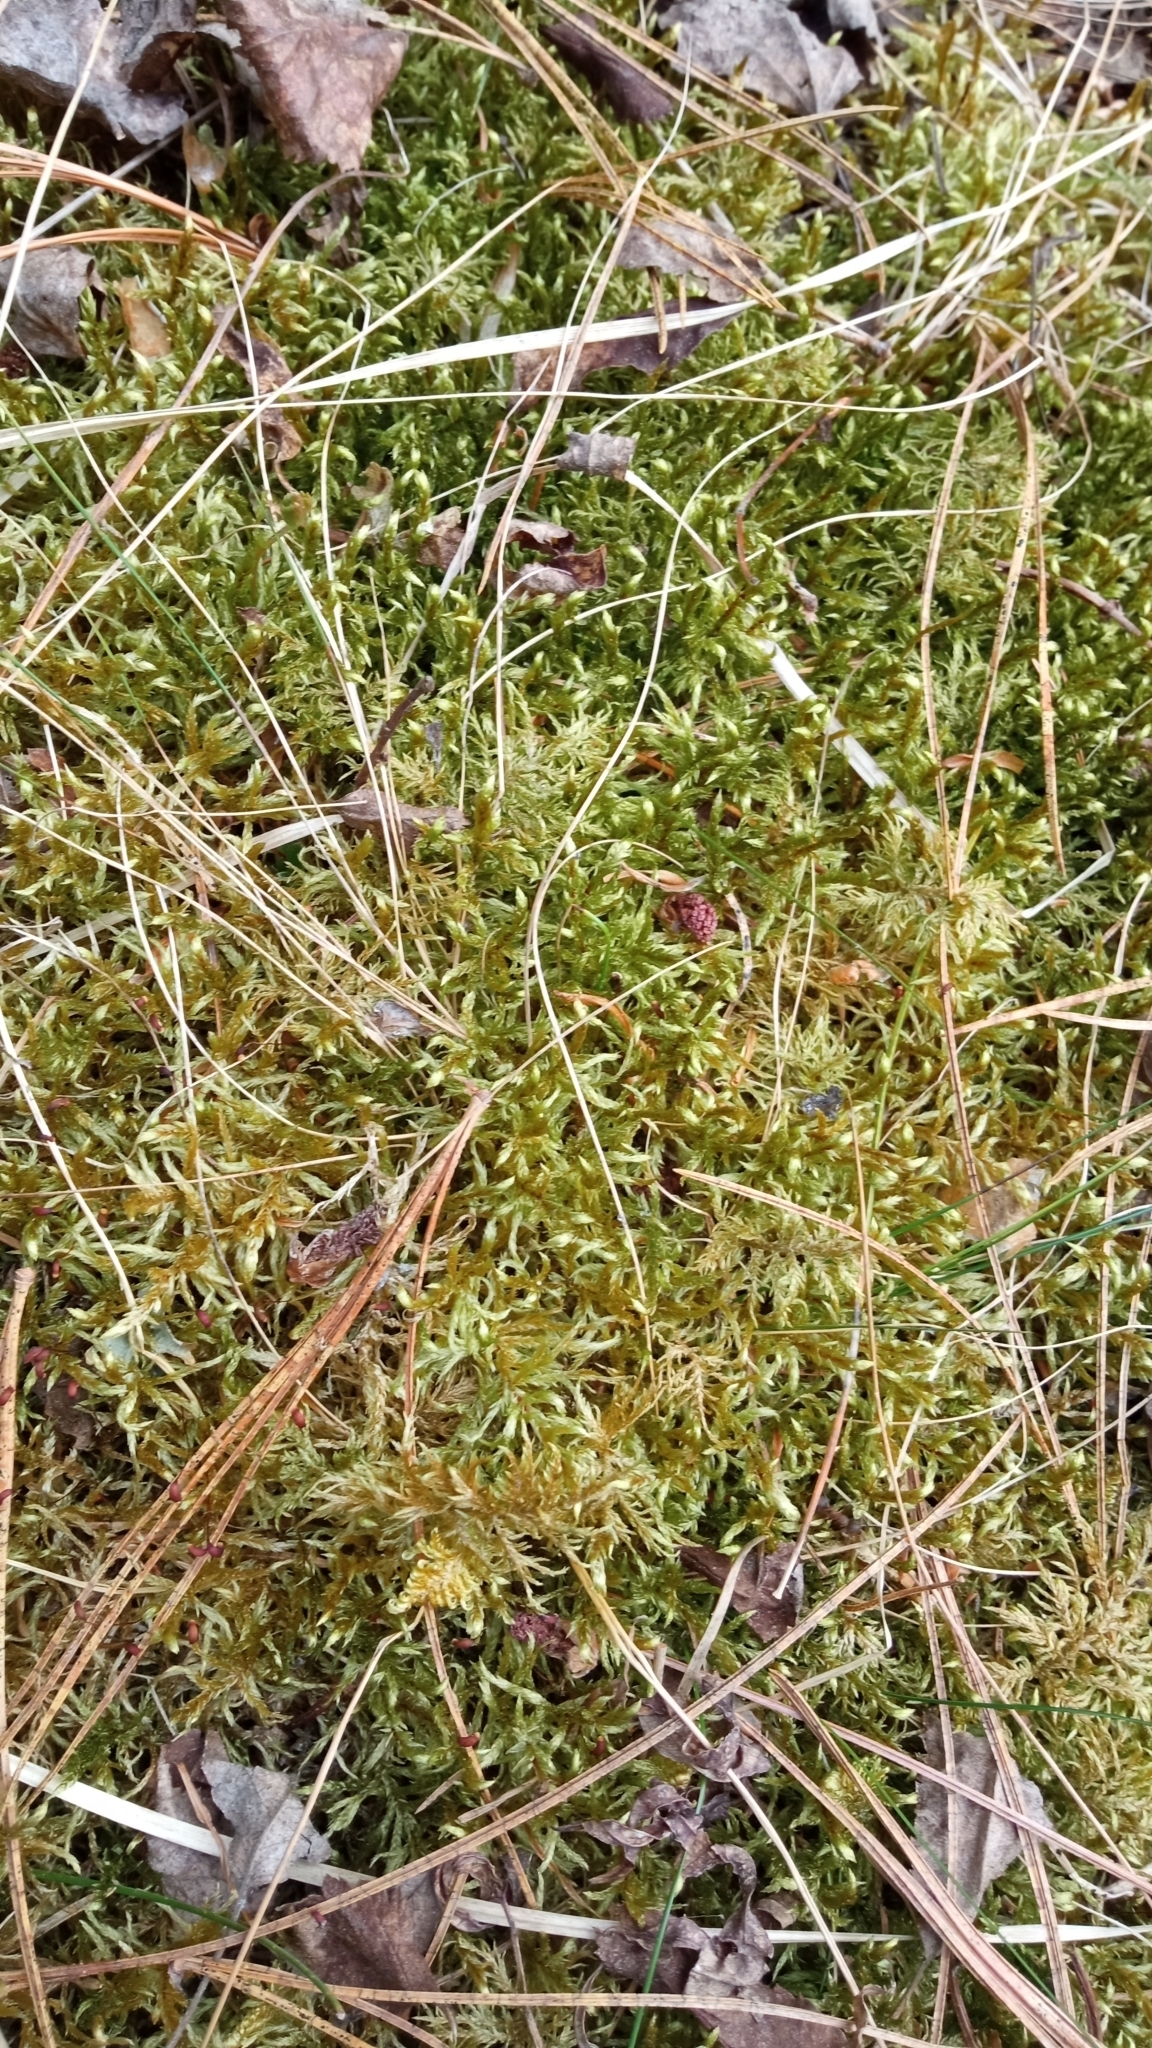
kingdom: Plantae
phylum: Bryophyta
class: Bryopsida
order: Hypnales
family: Hylocomiaceae
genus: Pleurozium
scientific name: Pleurozium schreberi
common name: Red-stemmed feather moss
